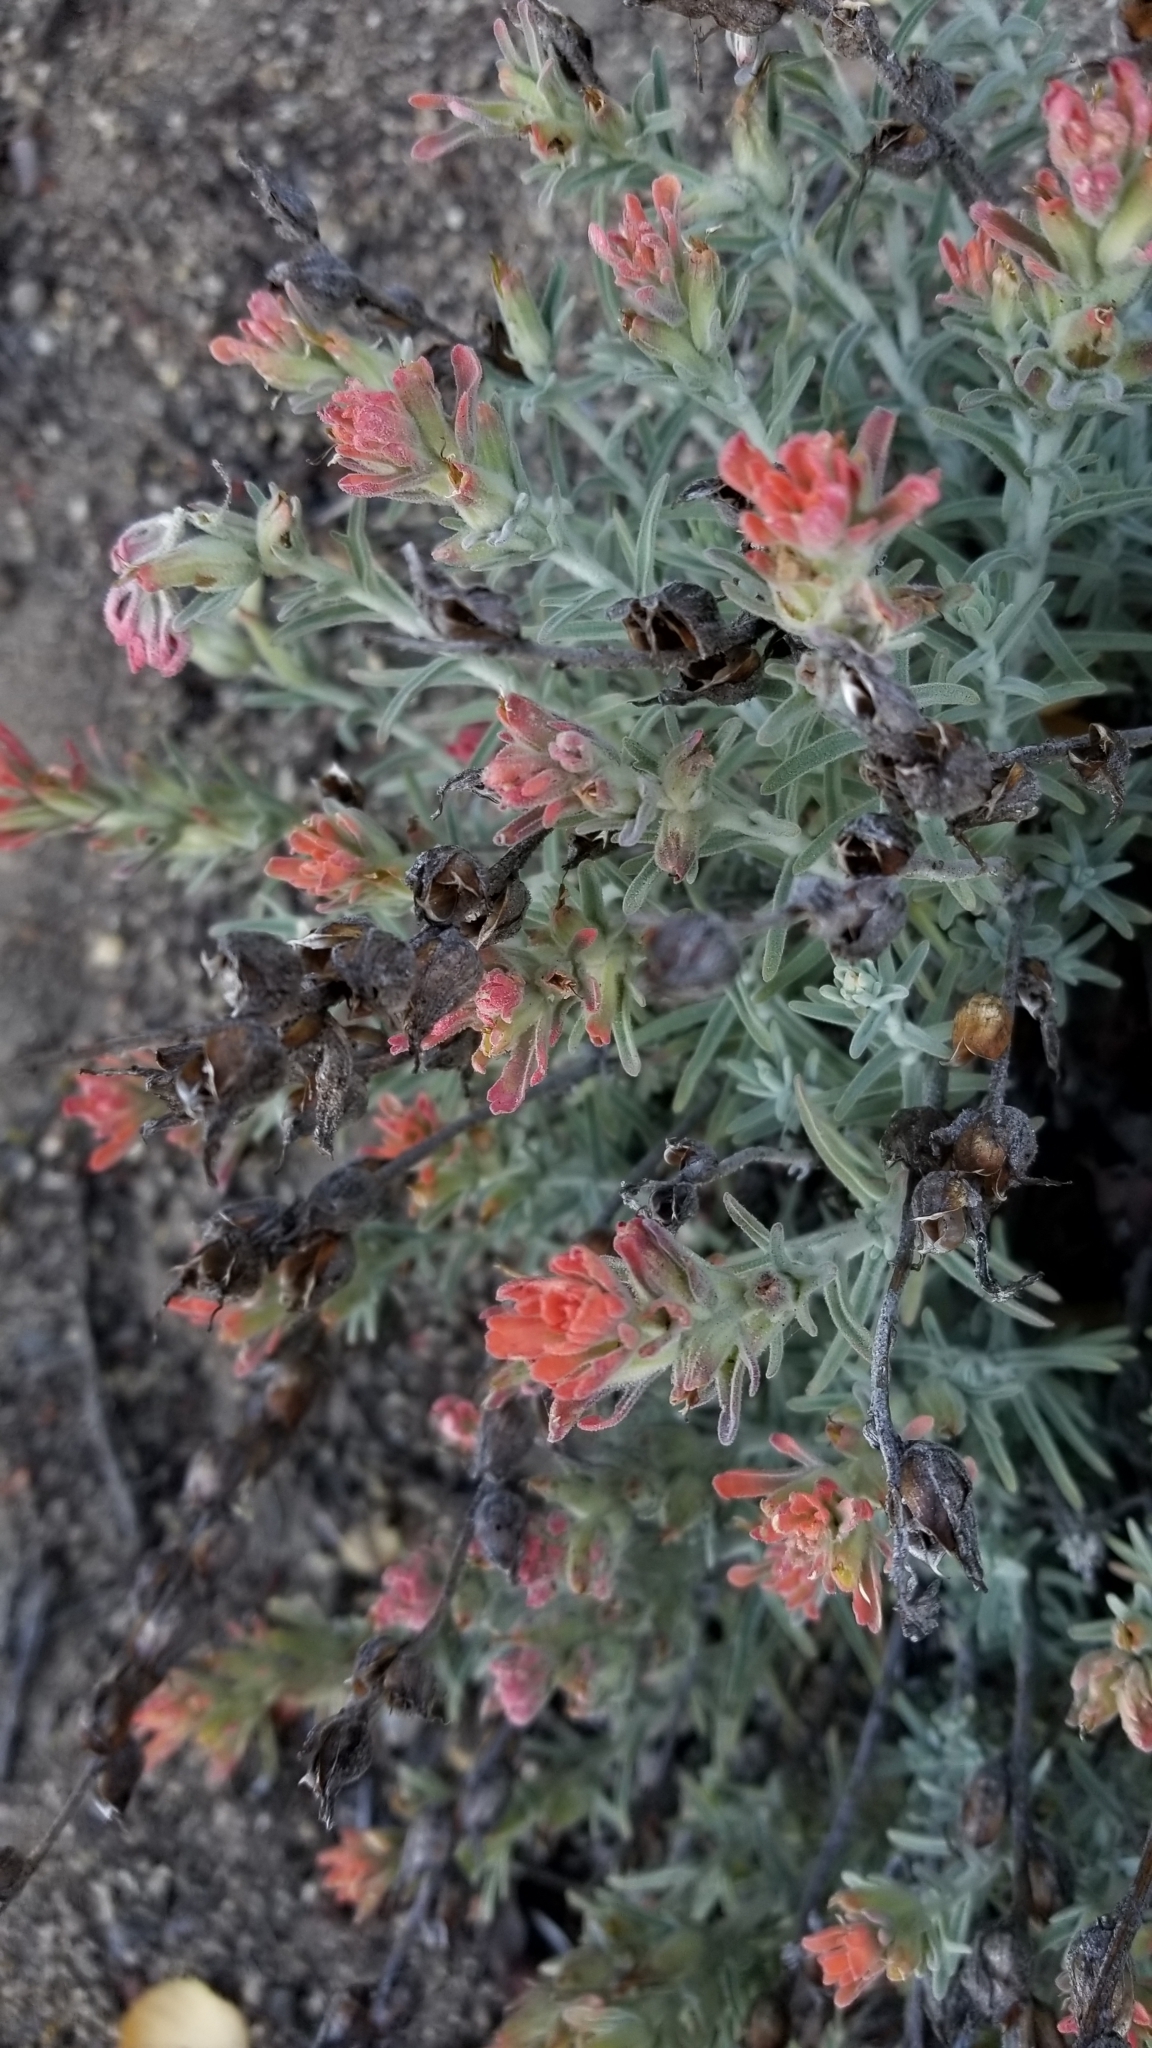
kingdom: Plantae
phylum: Tracheophyta
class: Magnoliopsida
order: Lamiales
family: Orobanchaceae
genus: Castilleja
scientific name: Castilleja foliolosa
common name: Woolly indian paintbrush
